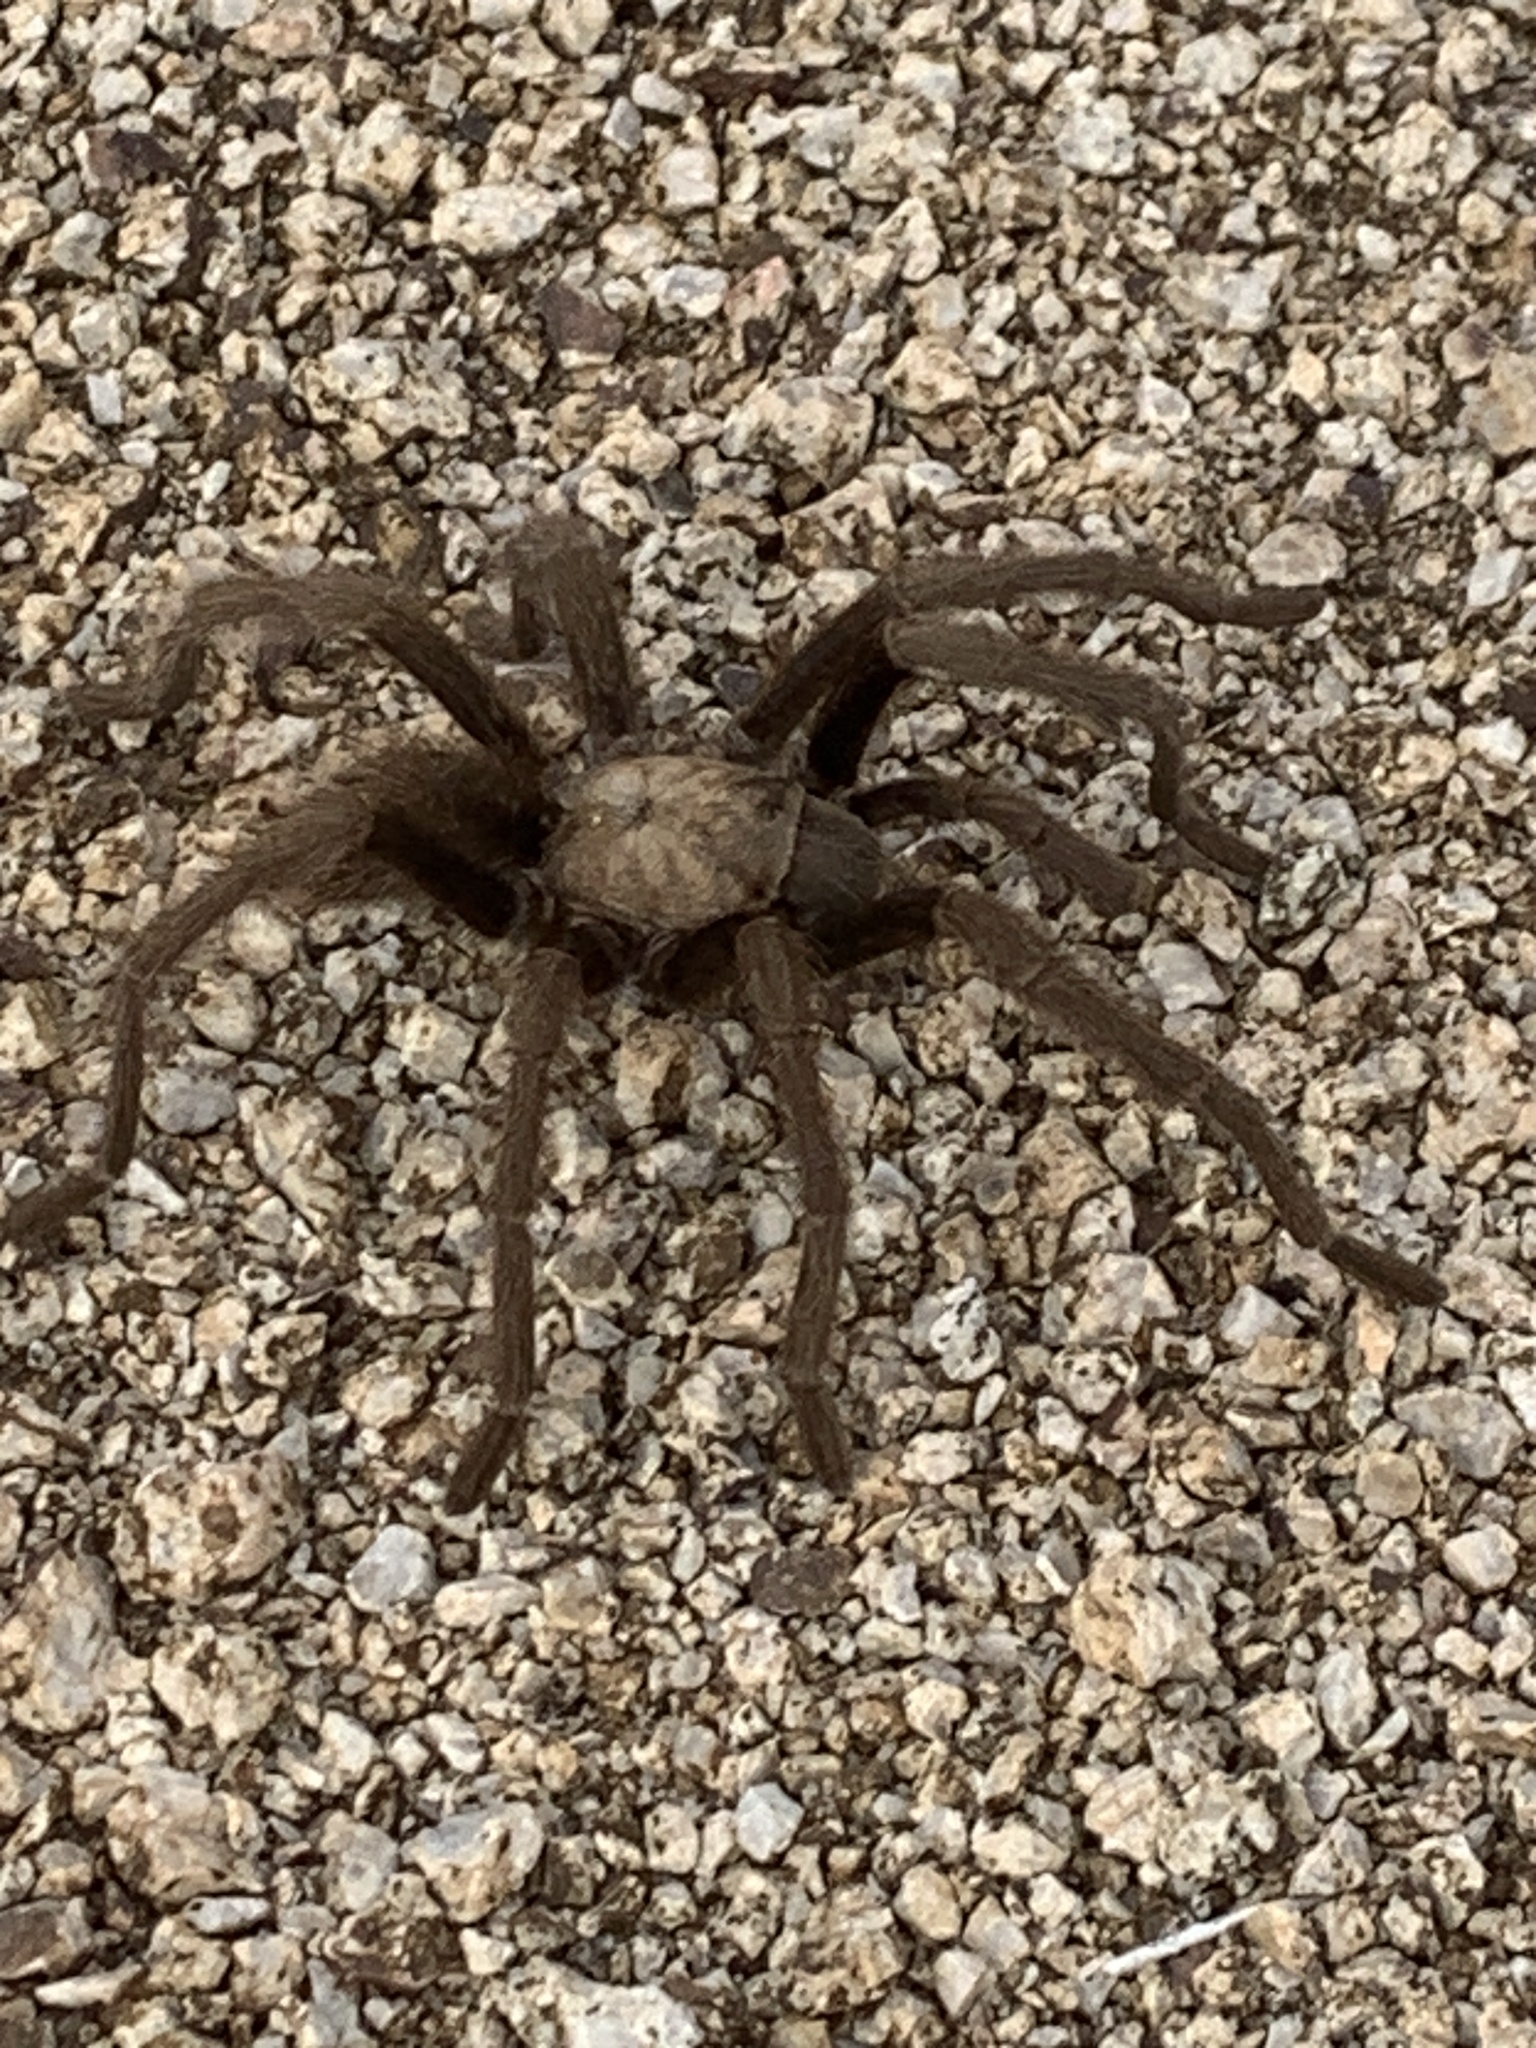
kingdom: Animalia
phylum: Arthropoda
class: Arachnida
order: Araneae
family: Theraphosidae
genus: Aphonopelma
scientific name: Aphonopelma iodius
